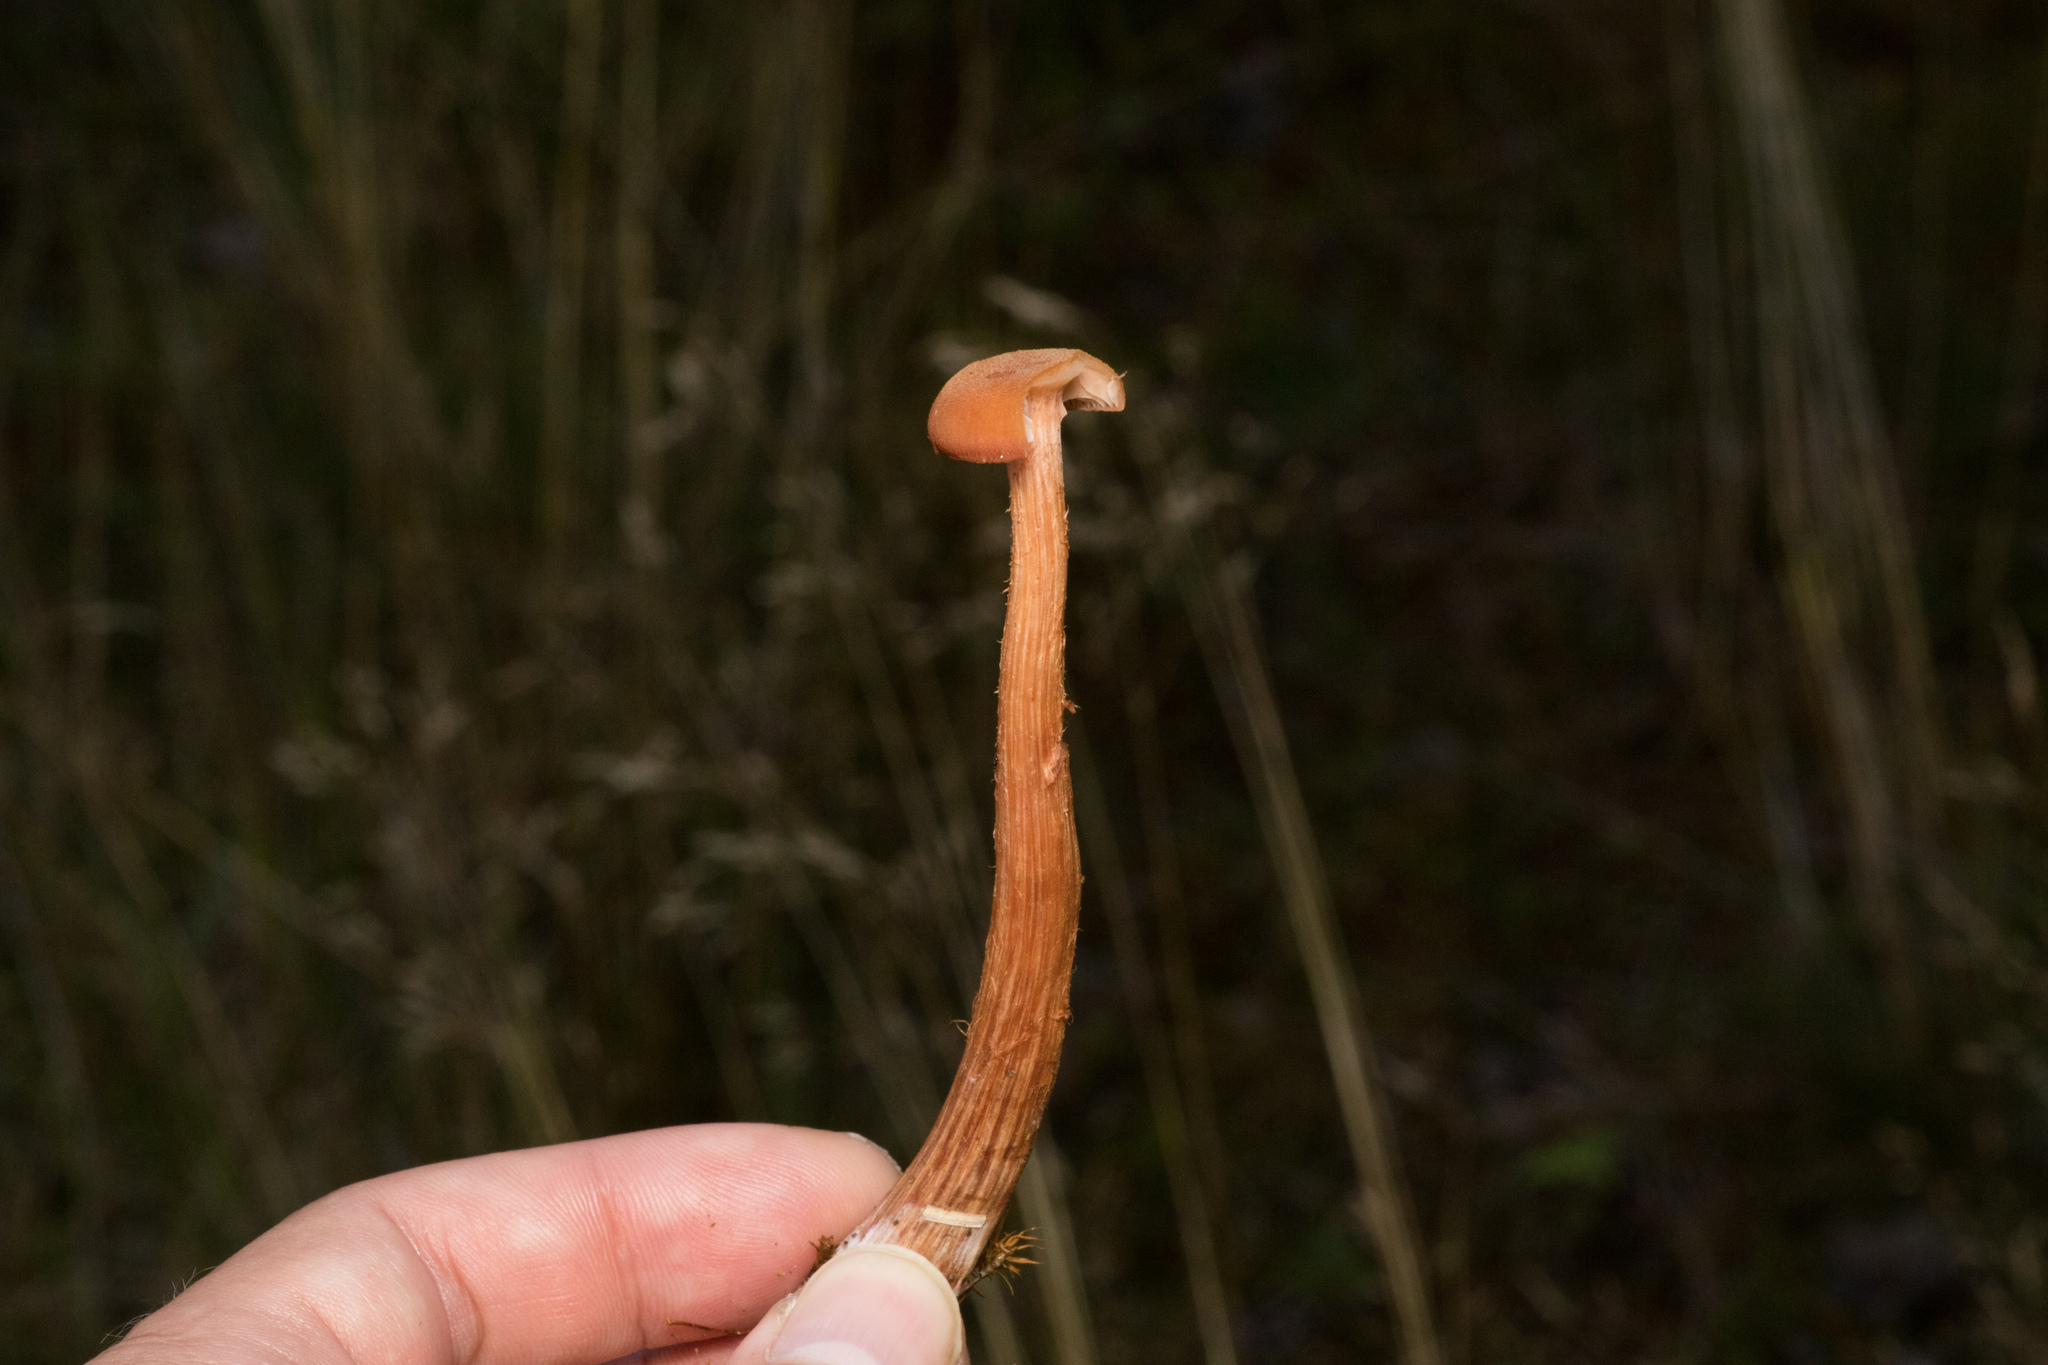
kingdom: Fungi
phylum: Basidiomycota
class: Agaricomycetes
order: Agaricales
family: Hydnangiaceae
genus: Laccaria
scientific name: Laccaria laccata
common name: Deceiver
